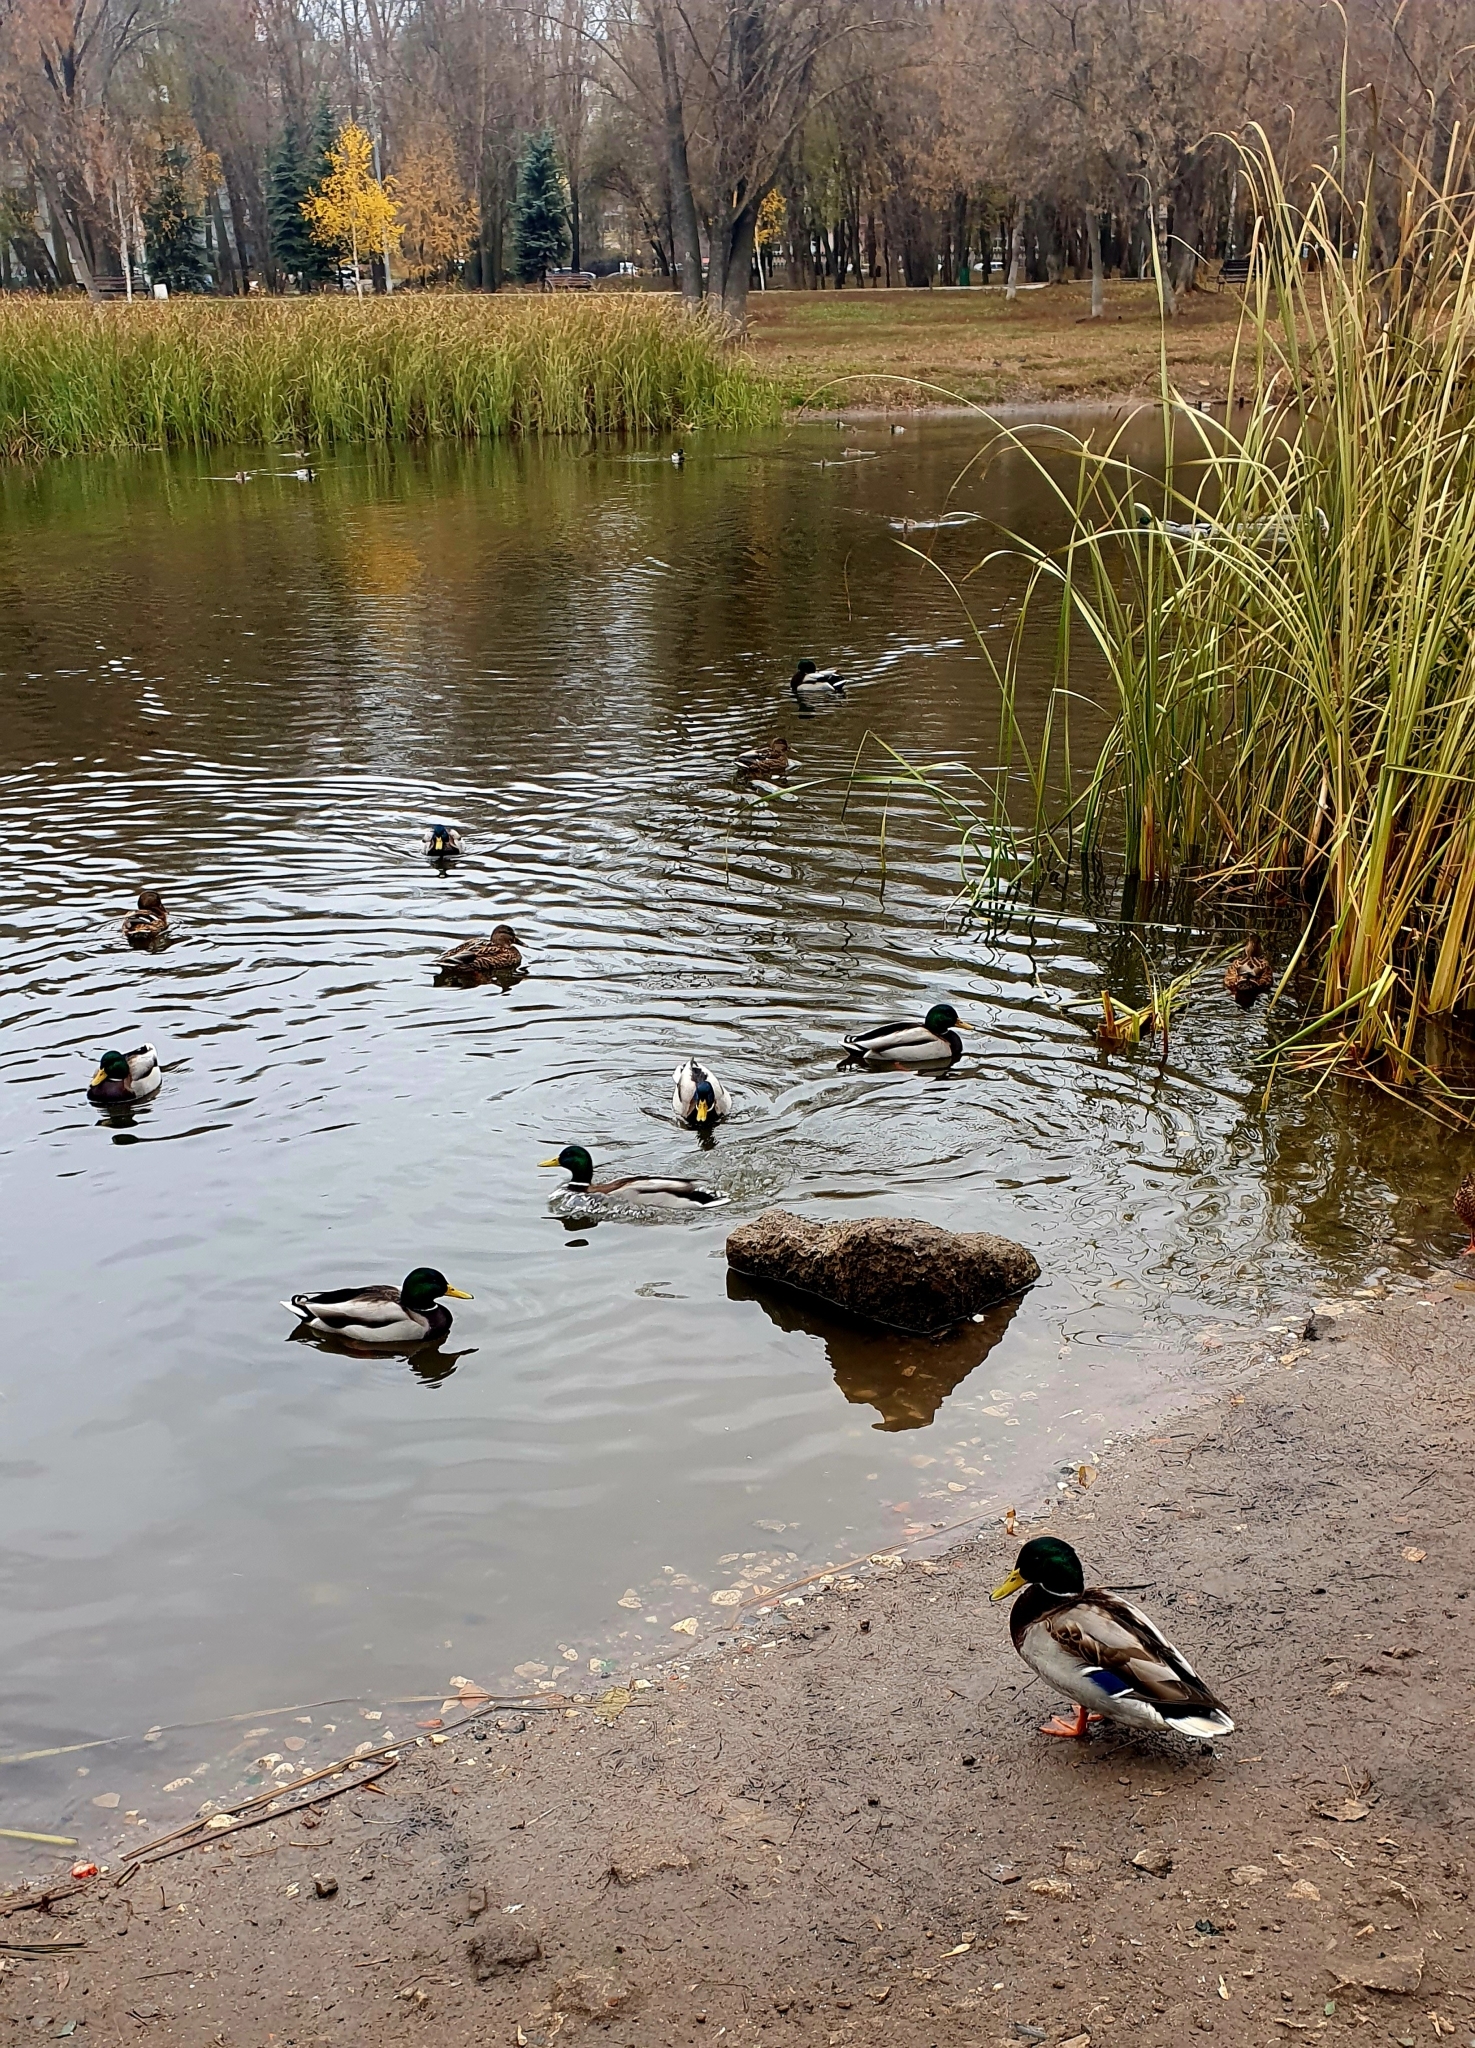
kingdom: Animalia
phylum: Chordata
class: Aves
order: Anseriformes
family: Anatidae
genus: Anas
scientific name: Anas platyrhynchos
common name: Mallard
